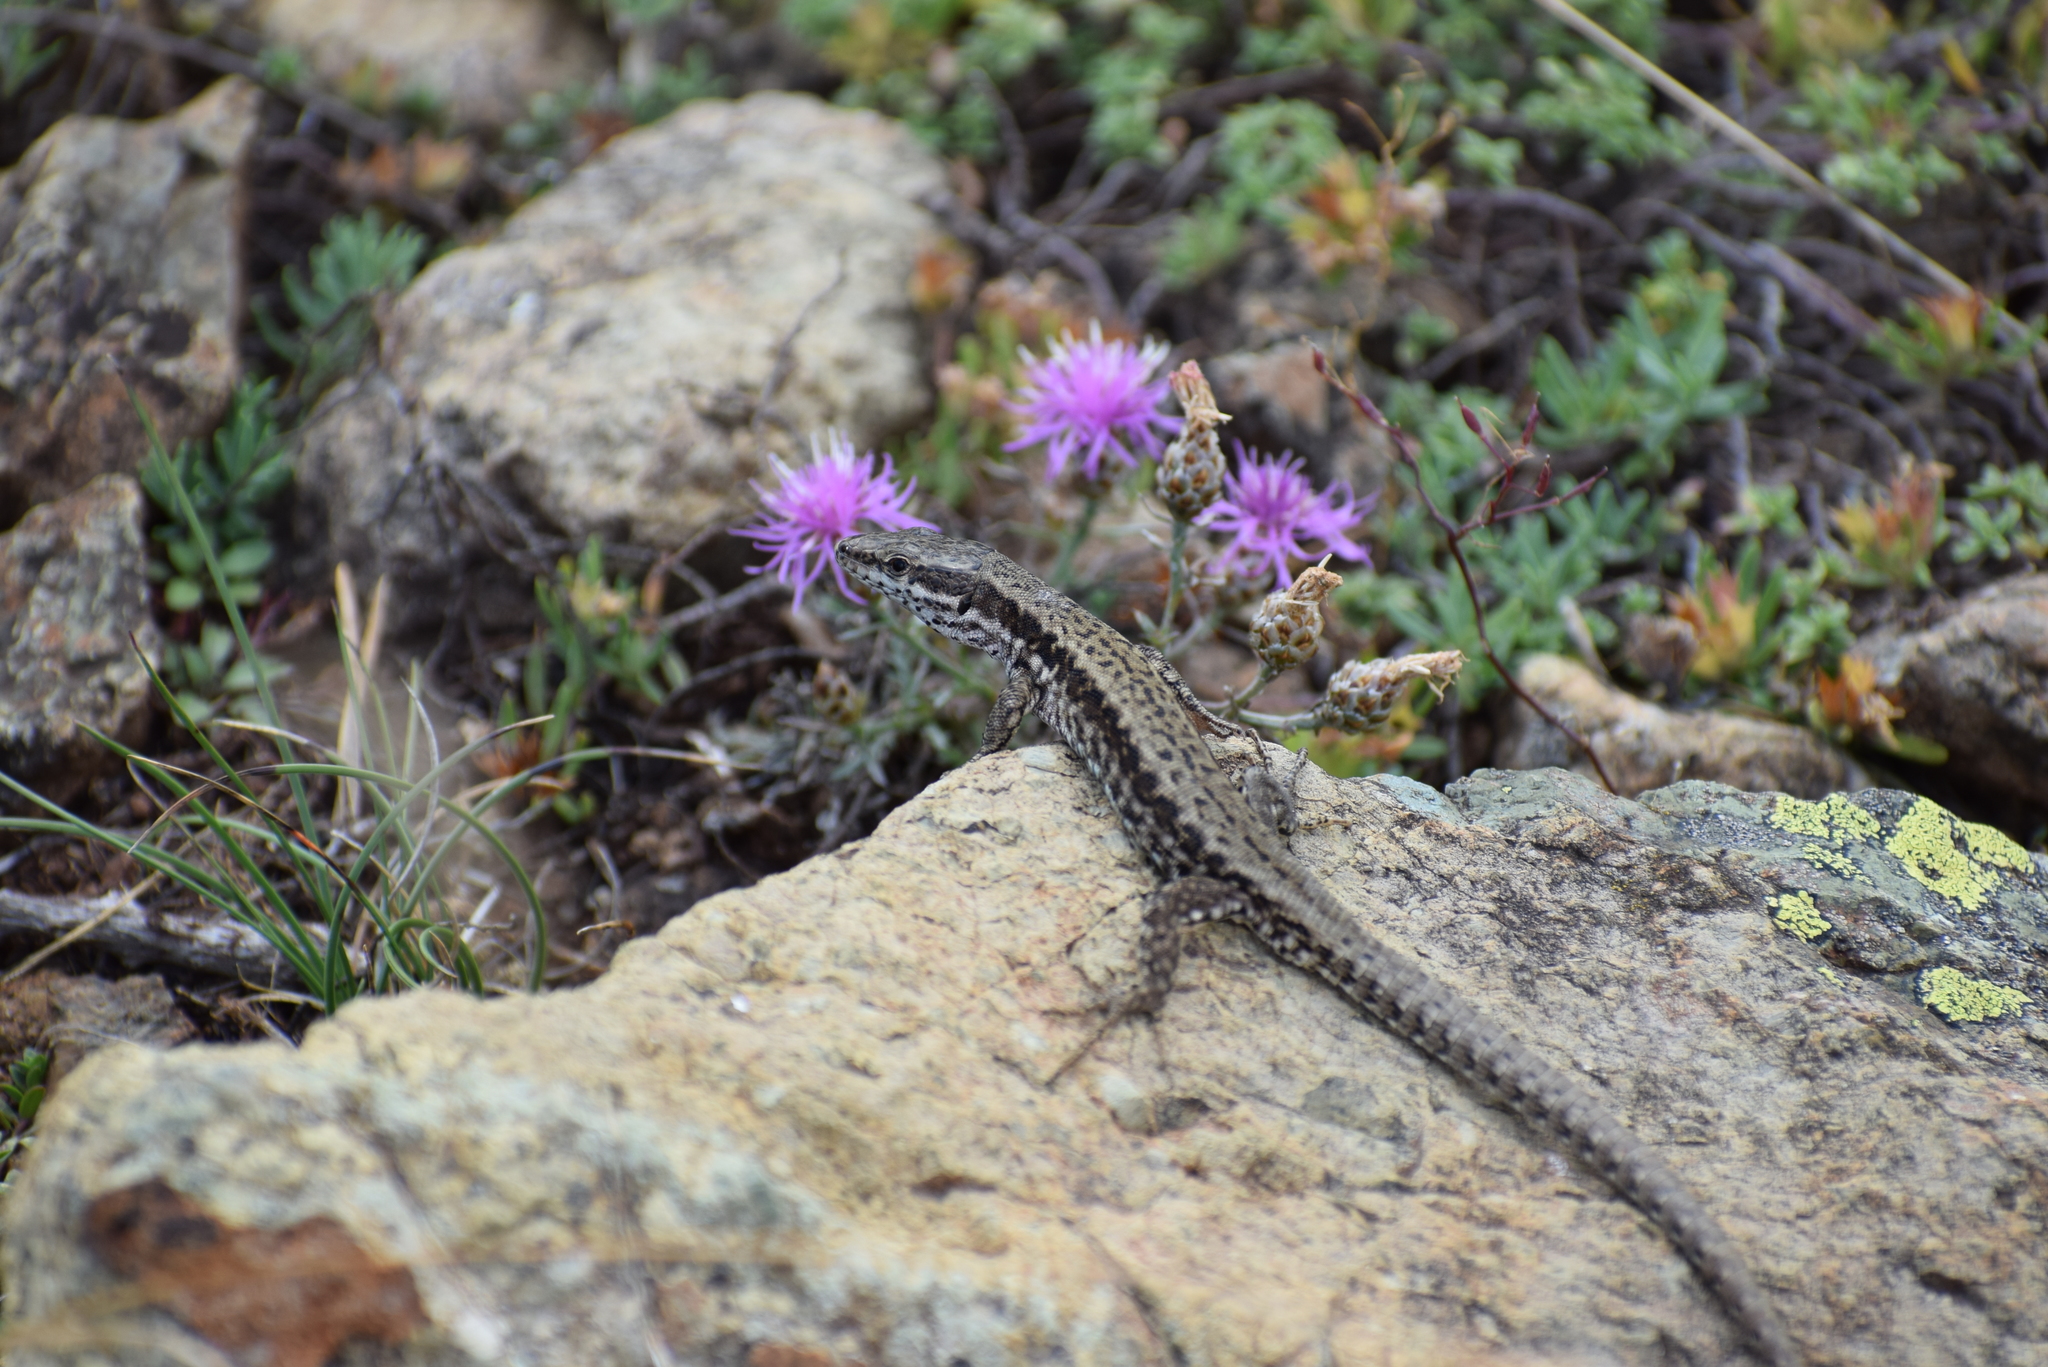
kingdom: Animalia
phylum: Chordata
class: Squamata
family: Lacertidae
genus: Podarcis
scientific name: Podarcis muralis
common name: Common wall lizard
